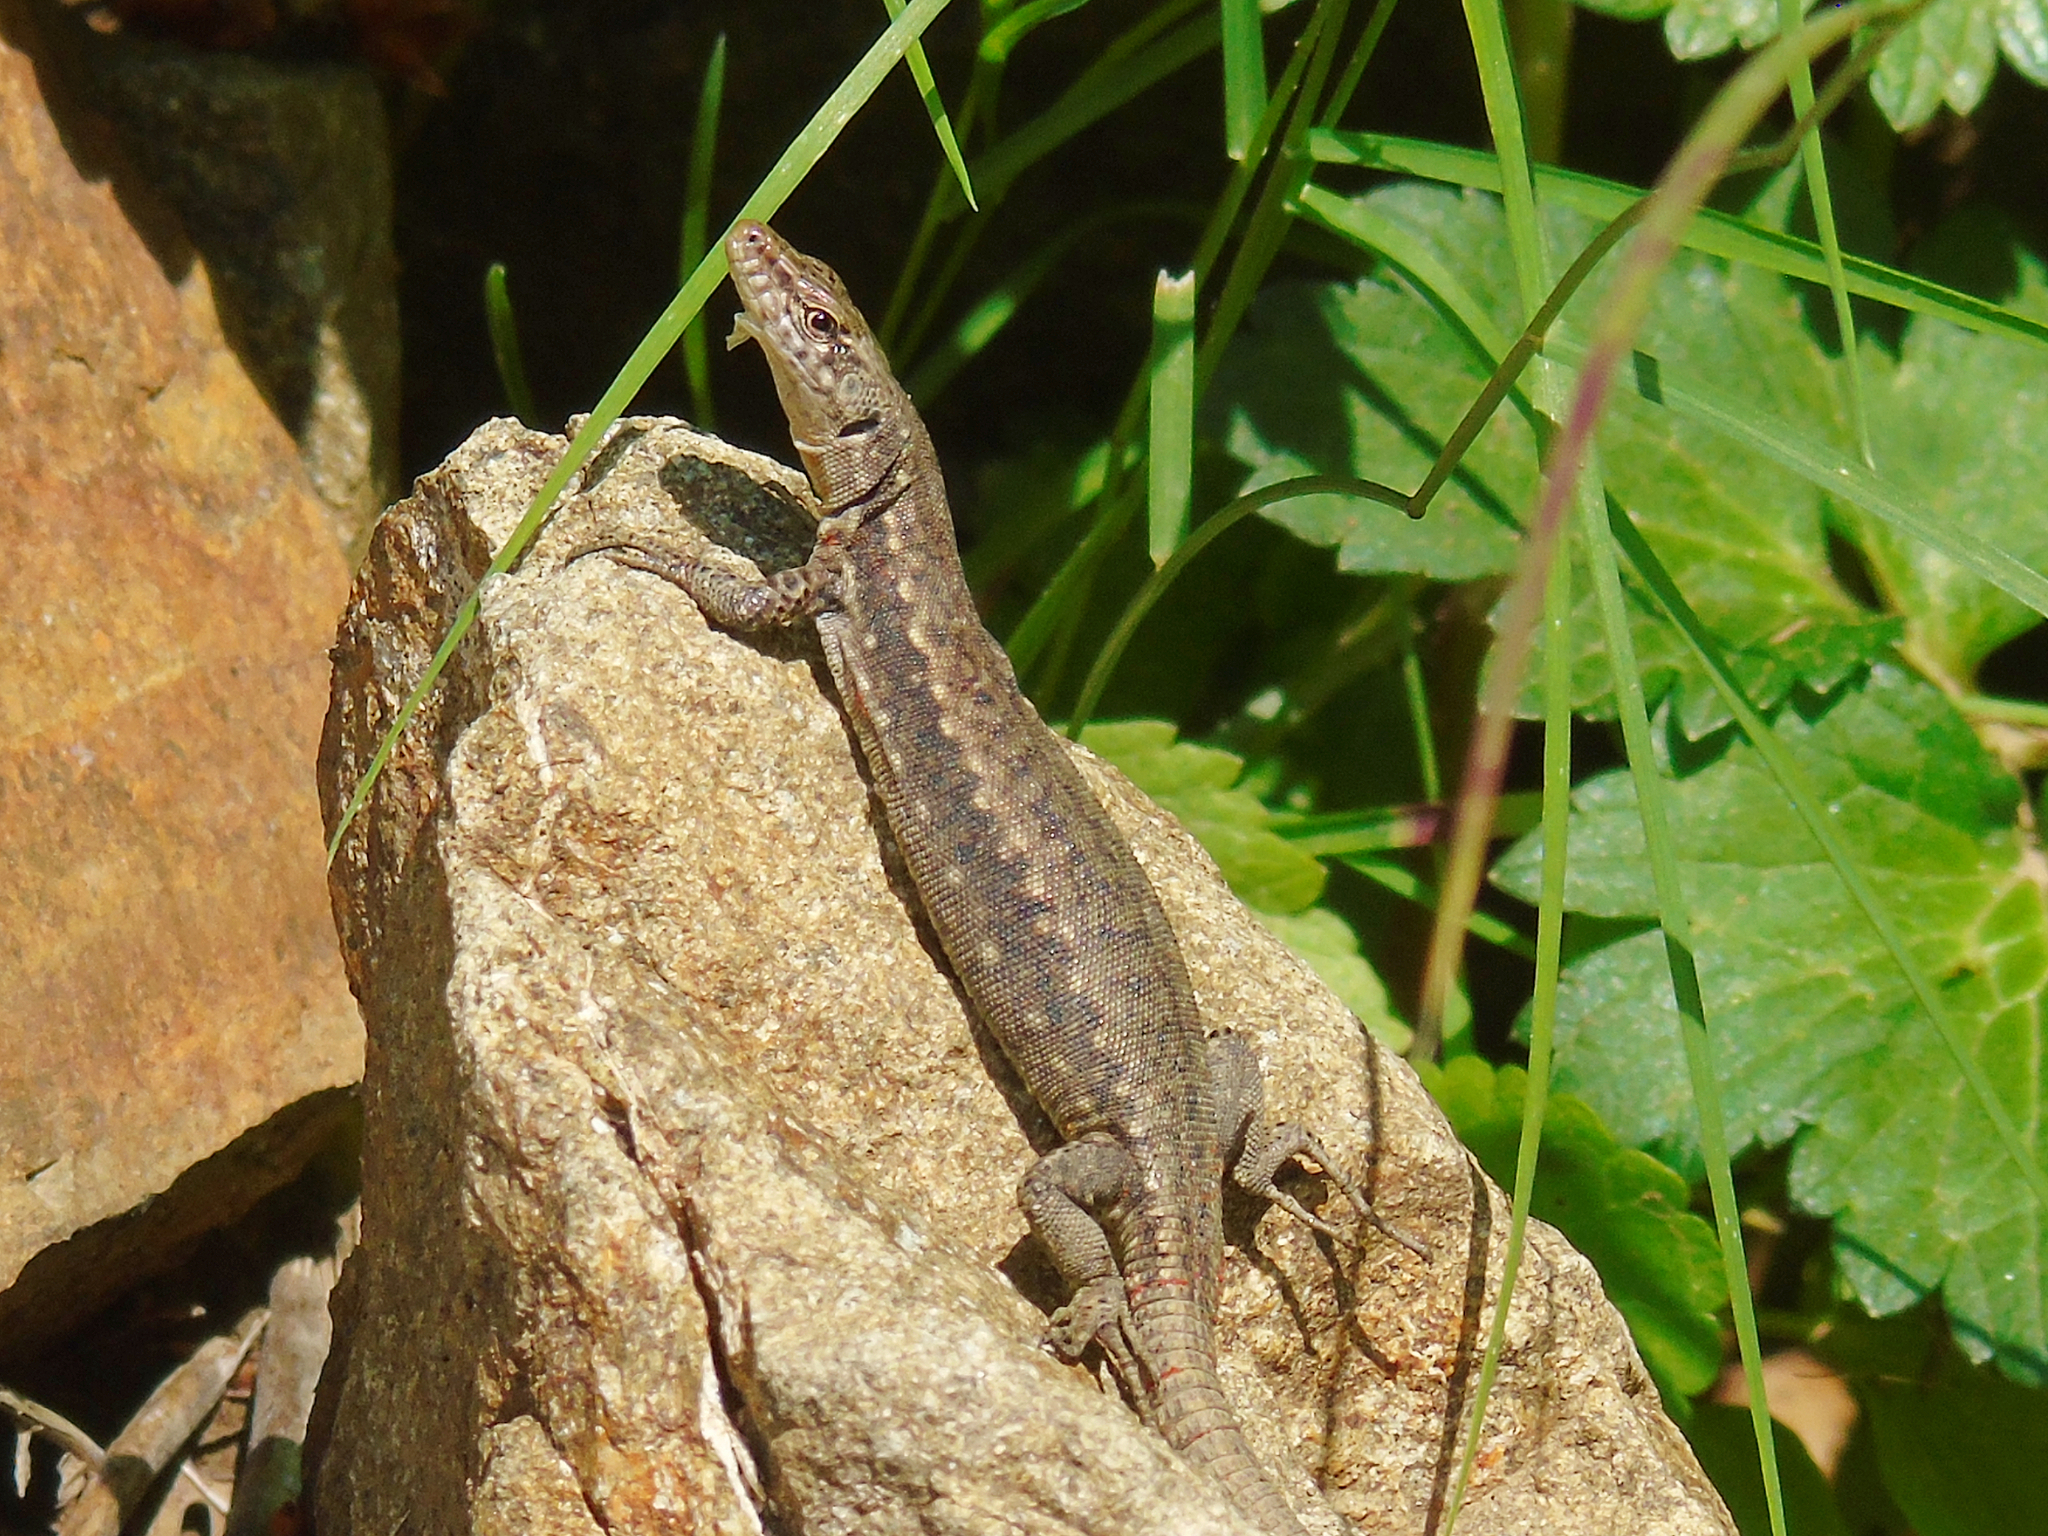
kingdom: Animalia
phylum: Chordata
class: Squamata
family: Lacertidae
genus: Darevskia
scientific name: Darevskia rudis
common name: Spiny-tailed lizard
